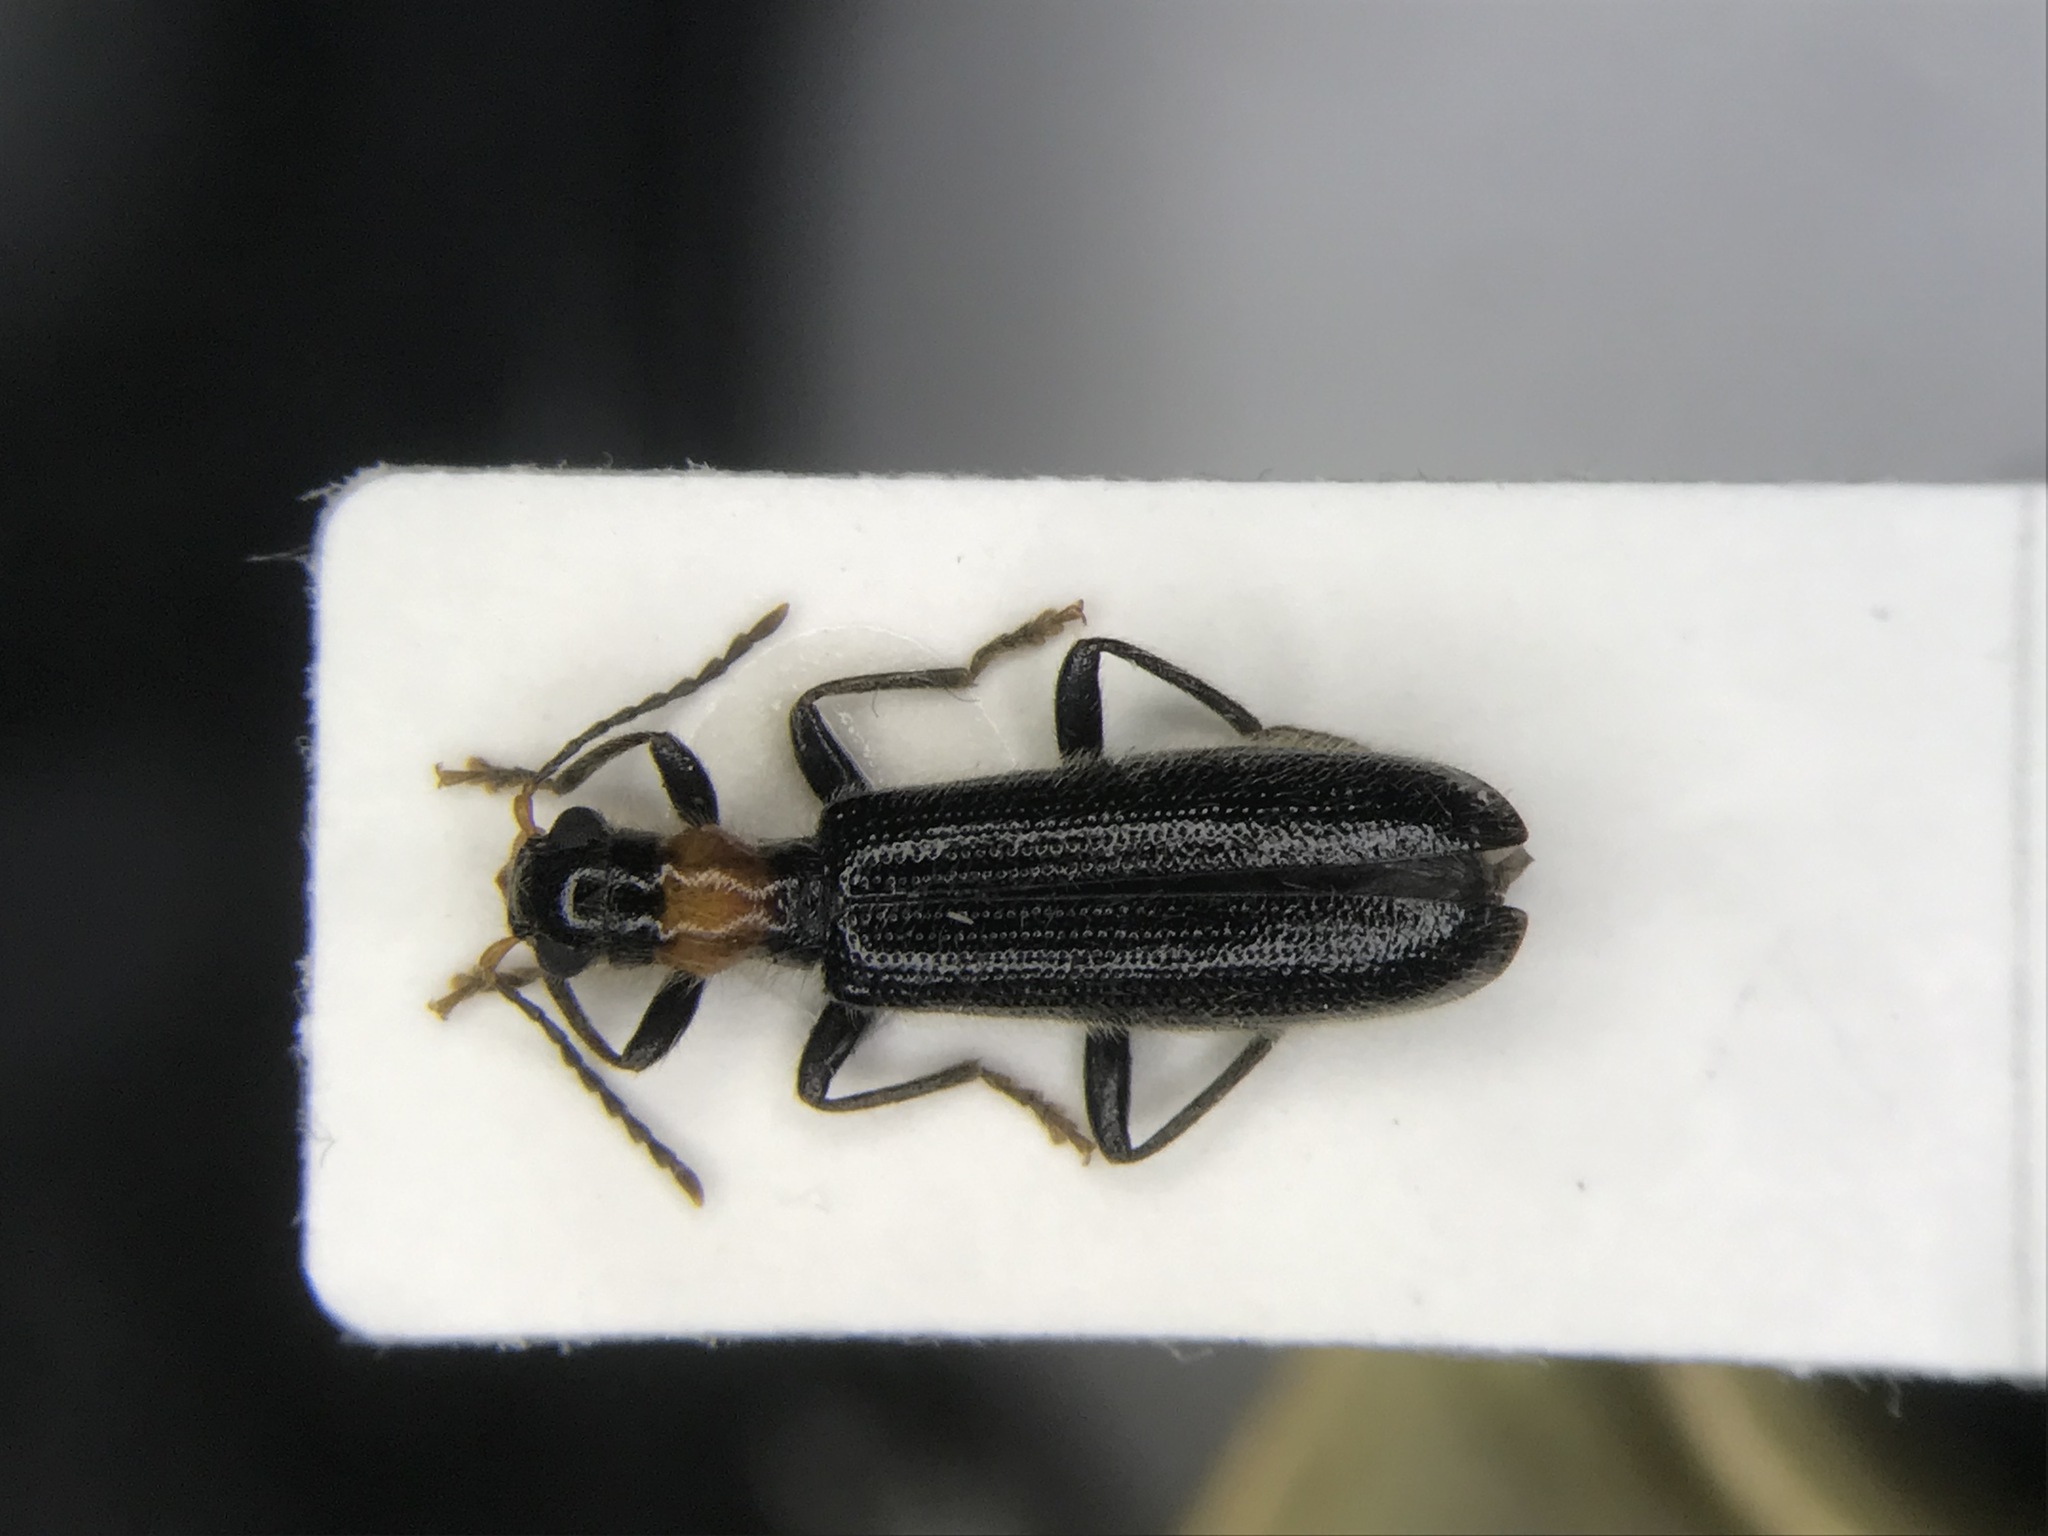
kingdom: Animalia
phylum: Arthropoda
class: Insecta
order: Coleoptera
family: Cleridae
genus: Cymatodera
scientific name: Cymatodera bicolor
